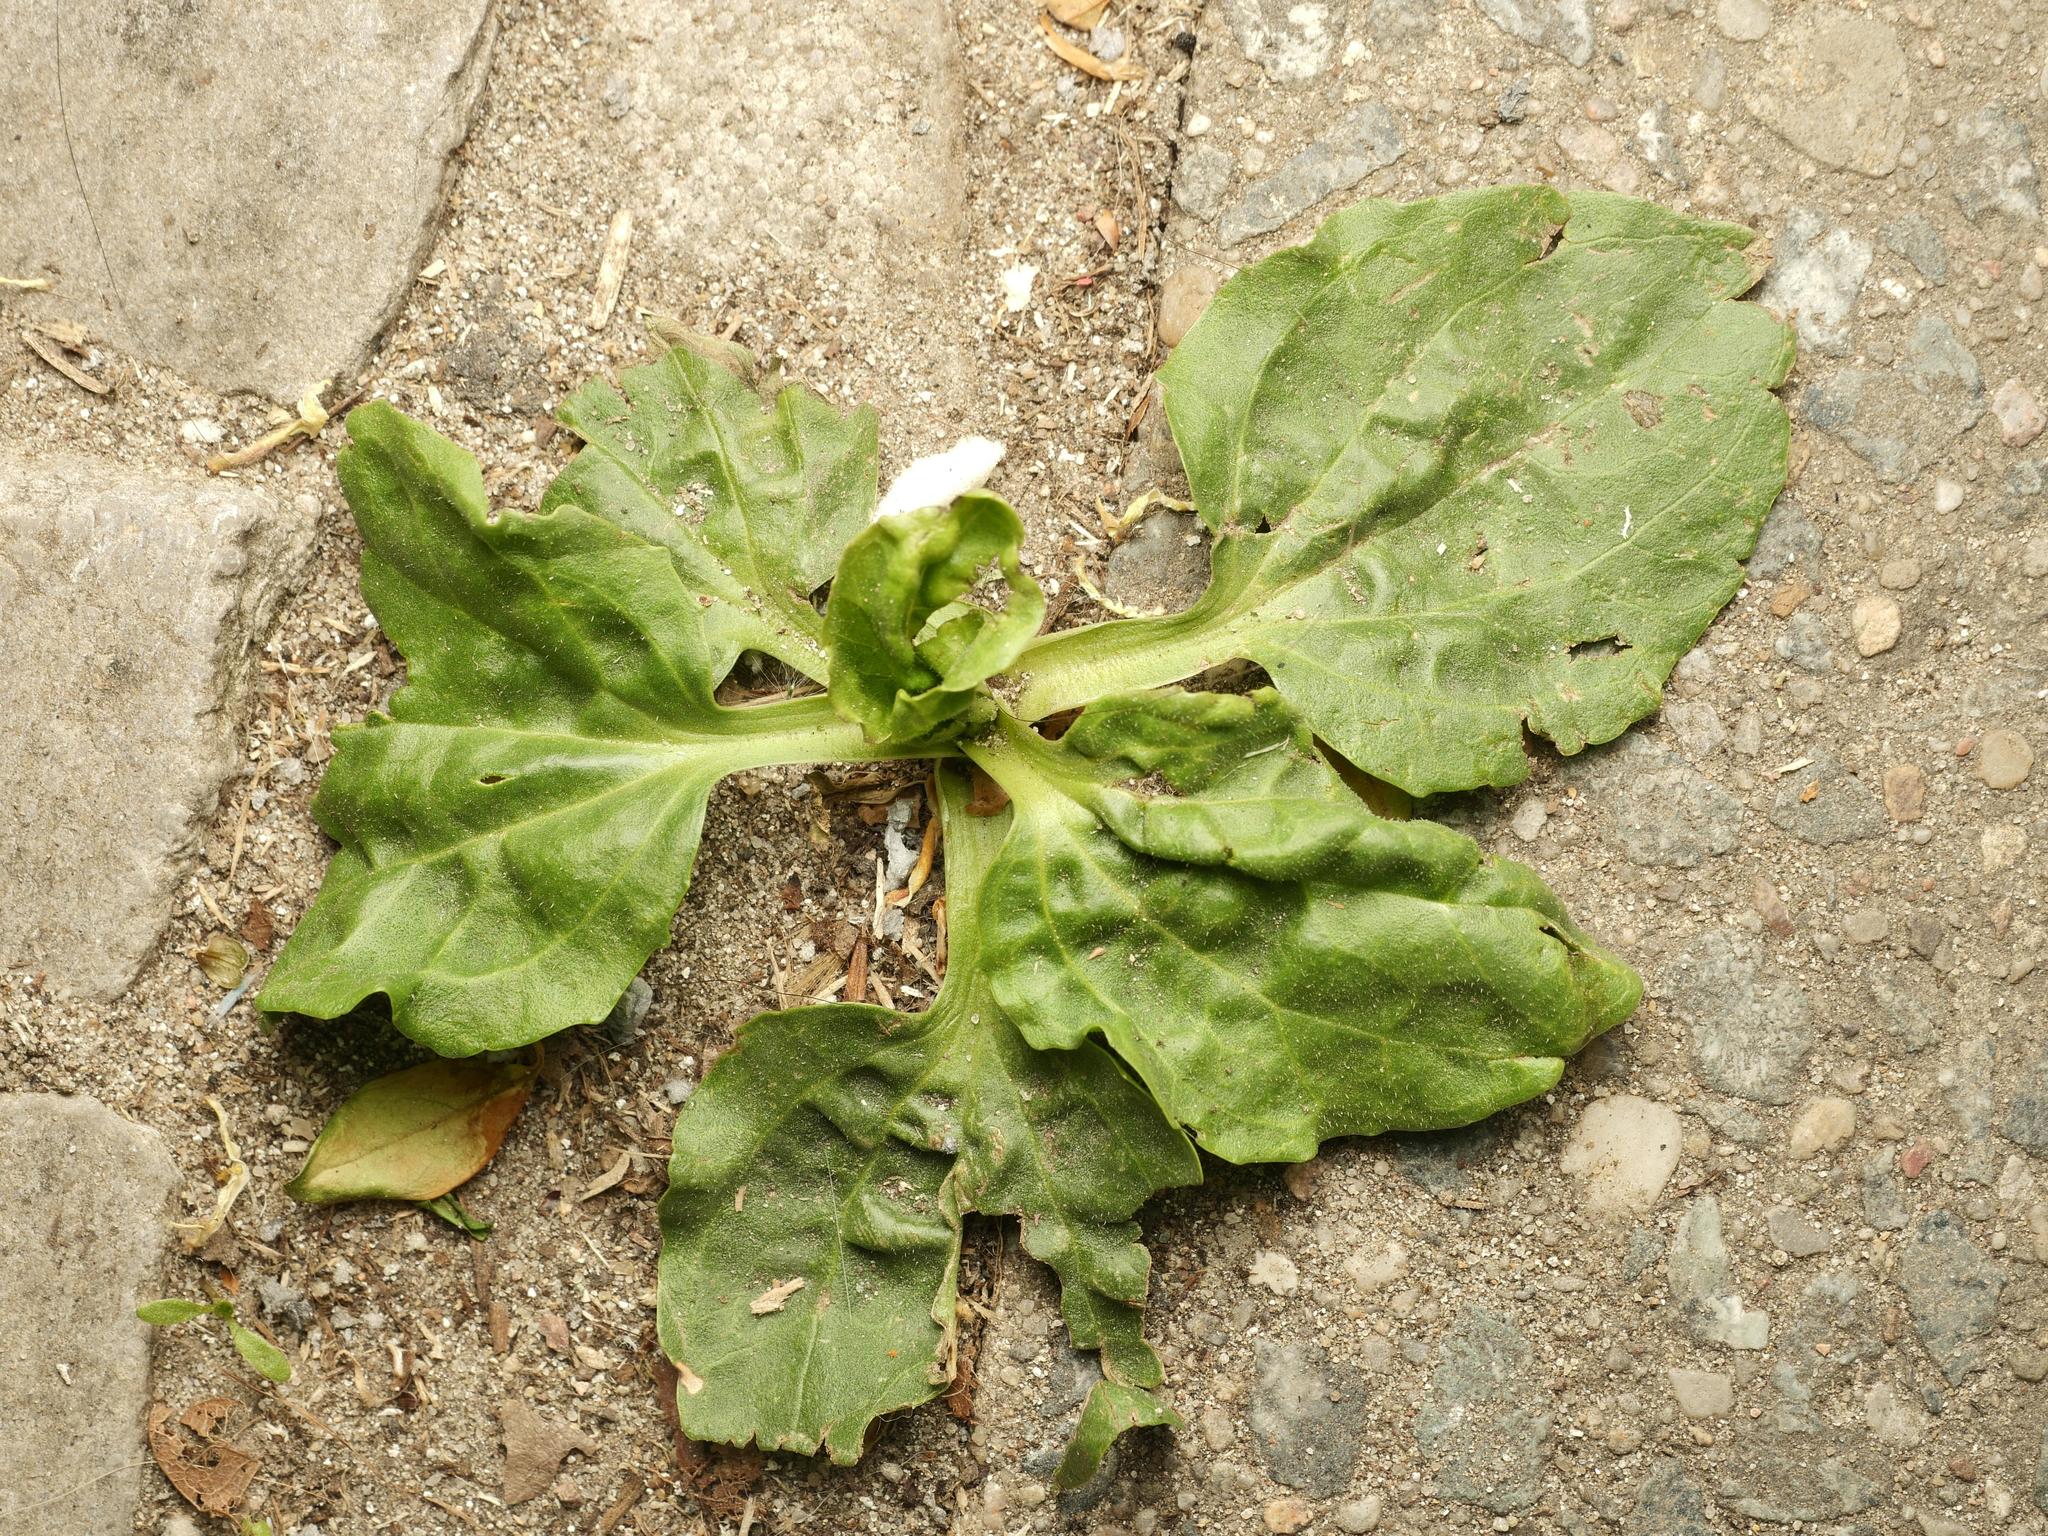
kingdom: Plantae
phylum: Tracheophyta
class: Magnoliopsida
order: Lamiales
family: Plantaginaceae
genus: Plantago
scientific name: Plantago major
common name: Common plantain
